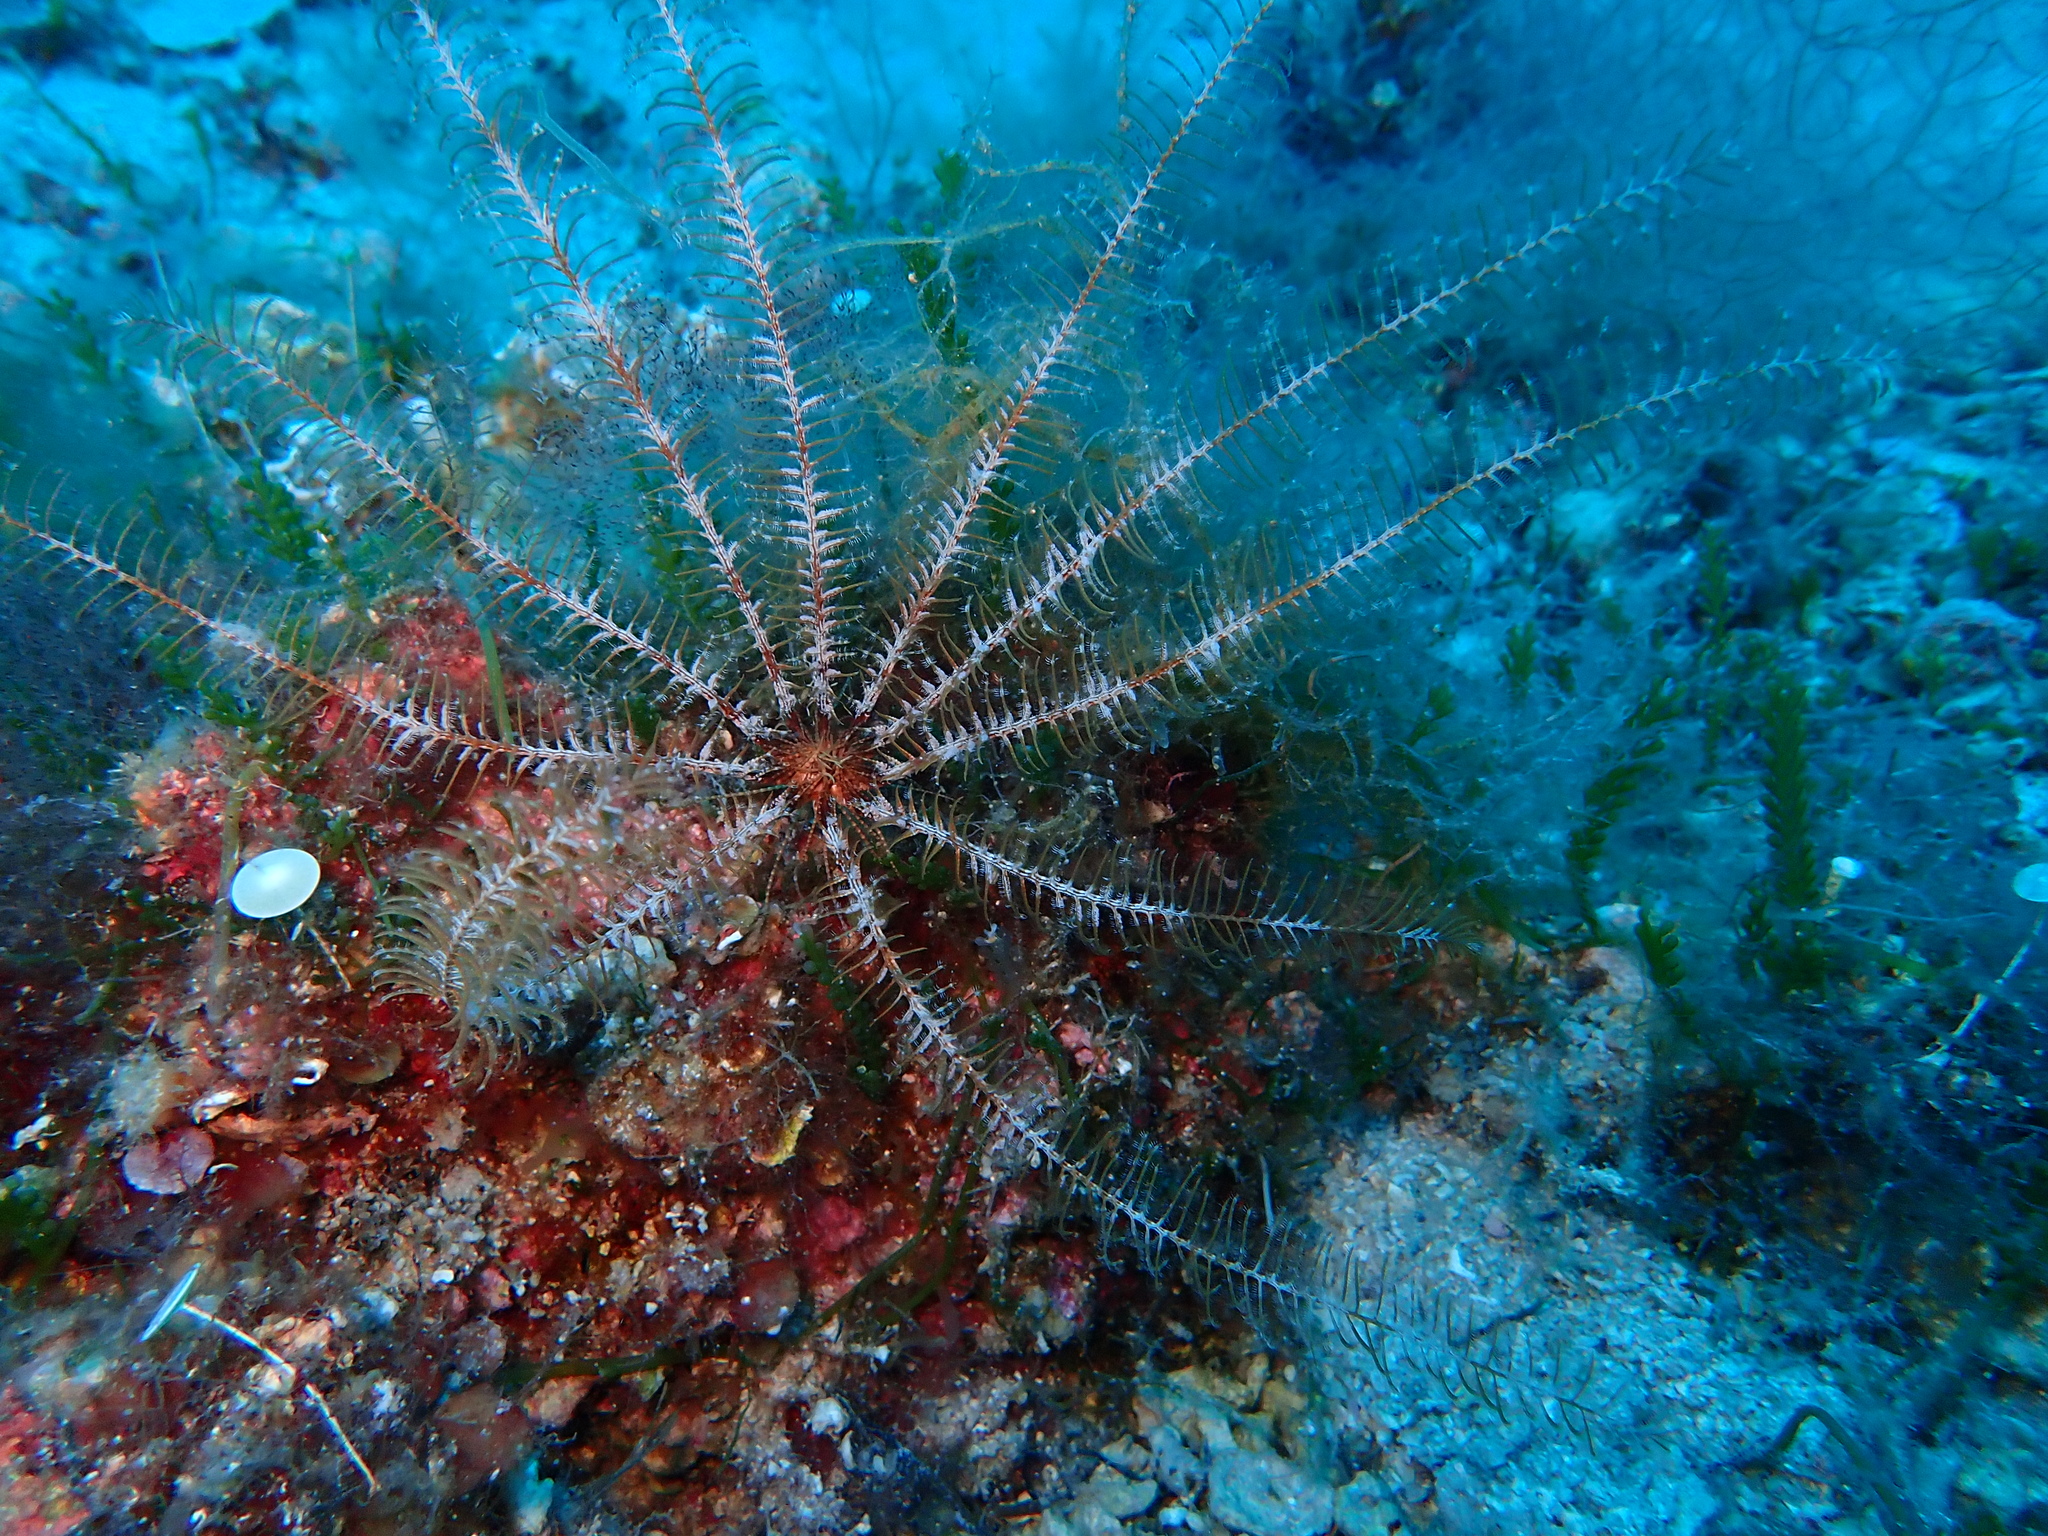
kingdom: Animalia
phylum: Echinodermata
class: Crinoidea
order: Comatulida
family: Antedonidae
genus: Antedon
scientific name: Antedon mediterranea
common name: Feather star
